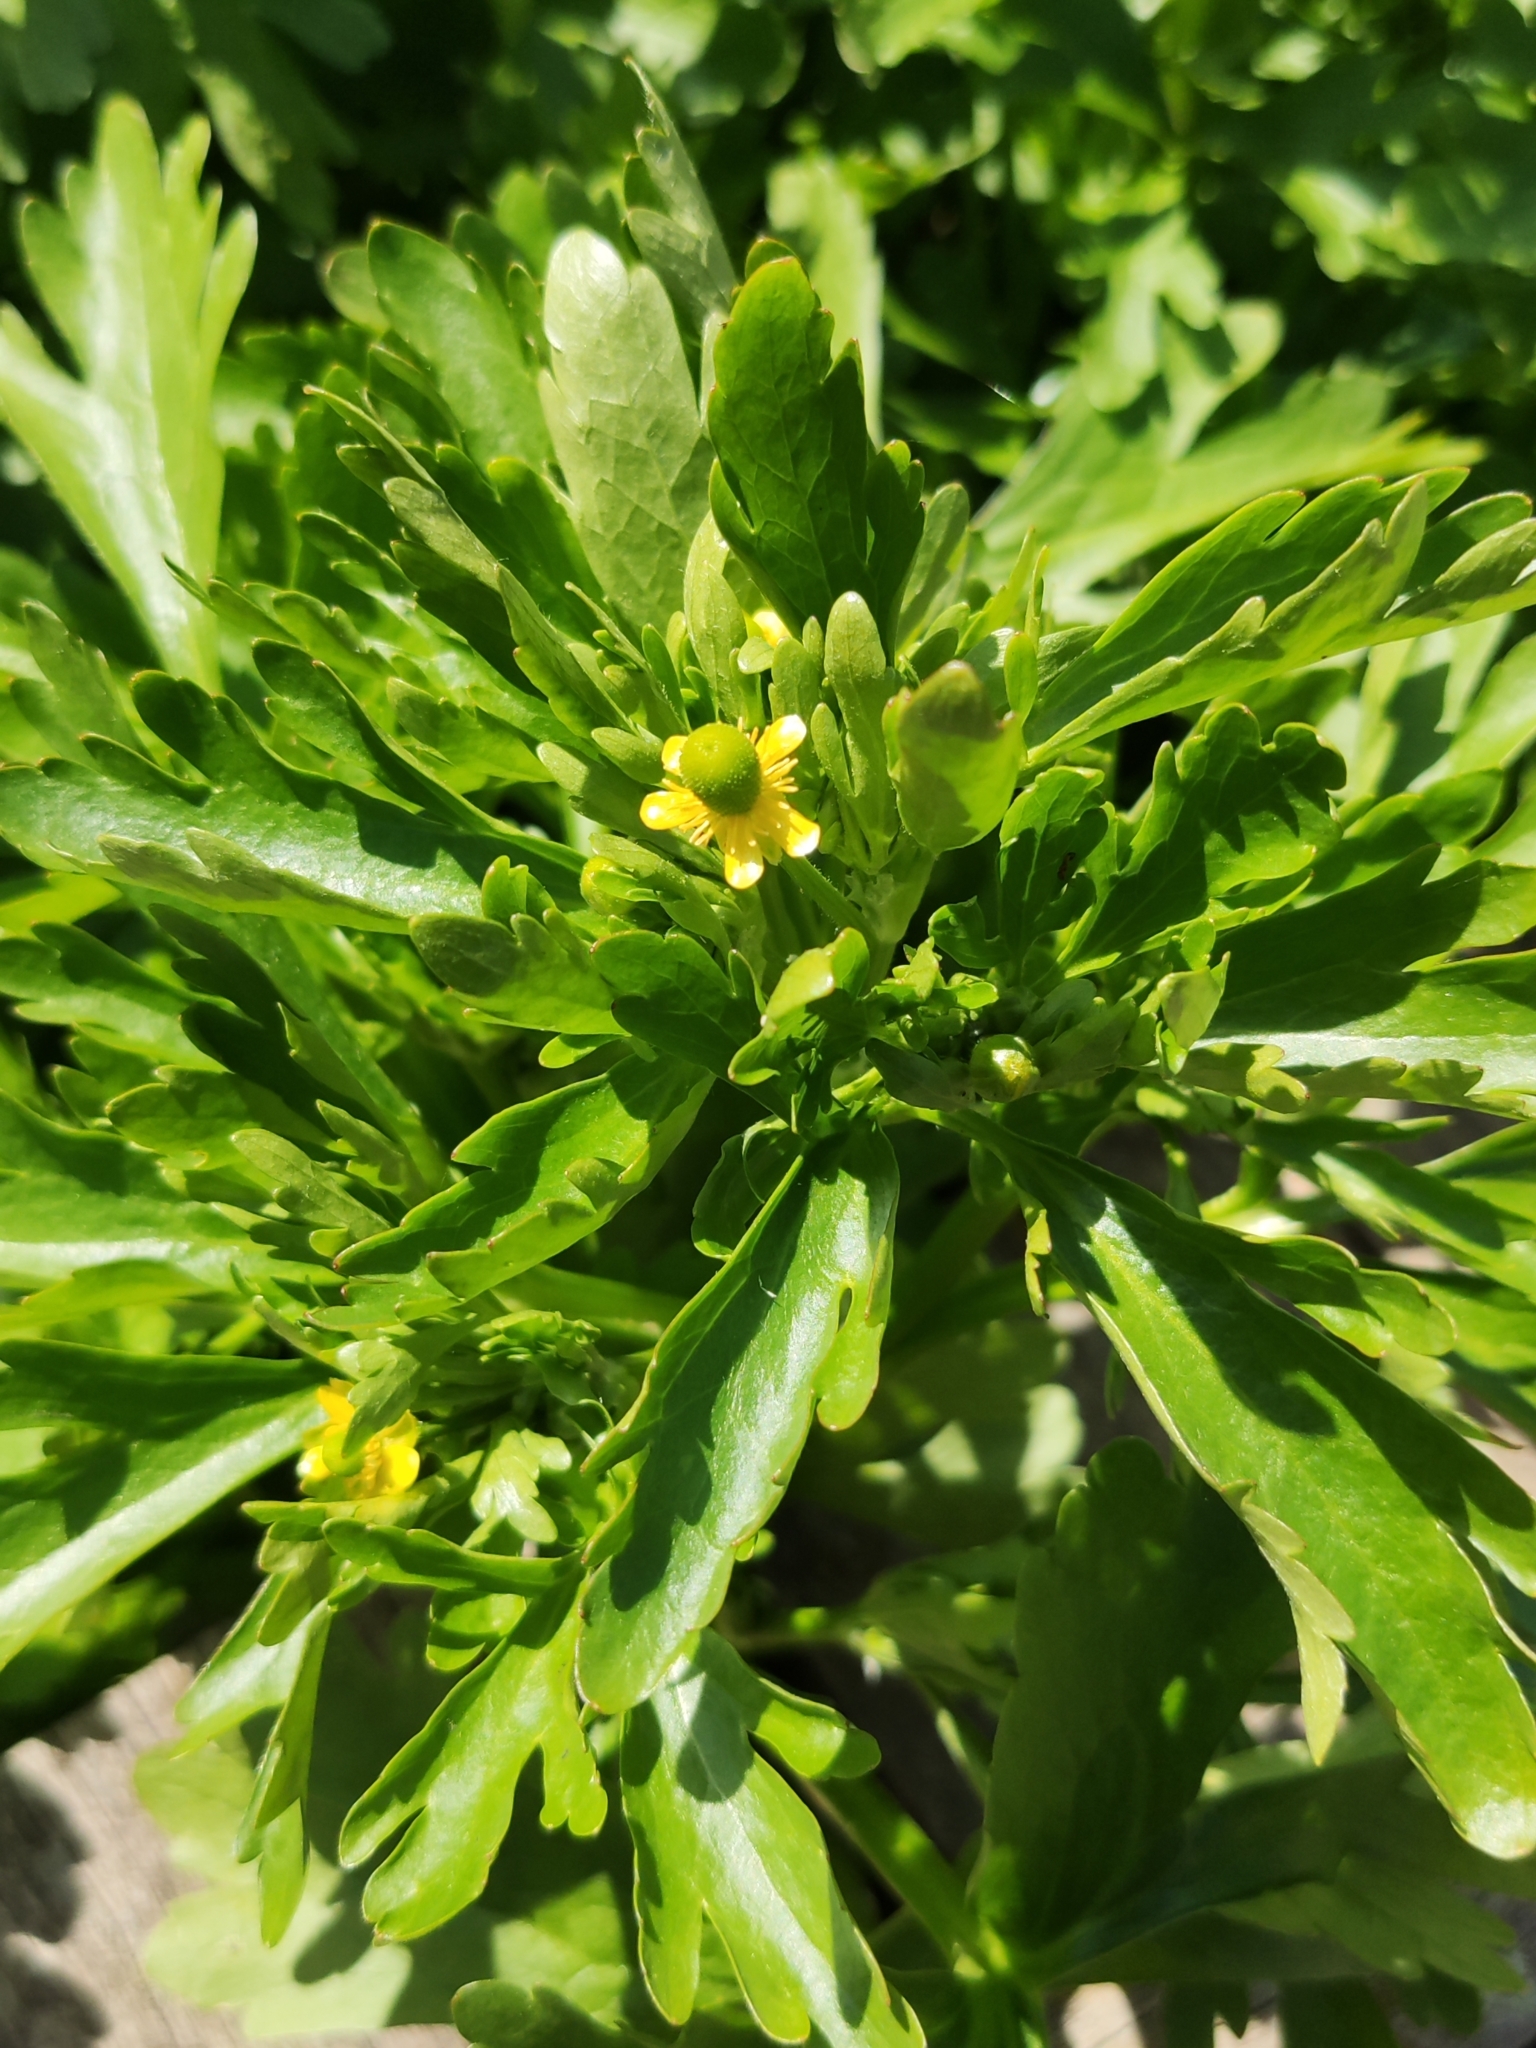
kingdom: Plantae
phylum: Tracheophyta
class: Magnoliopsida
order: Ranunculales
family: Ranunculaceae
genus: Ranunculus
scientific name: Ranunculus sceleratus
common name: Celery-leaved buttercup
